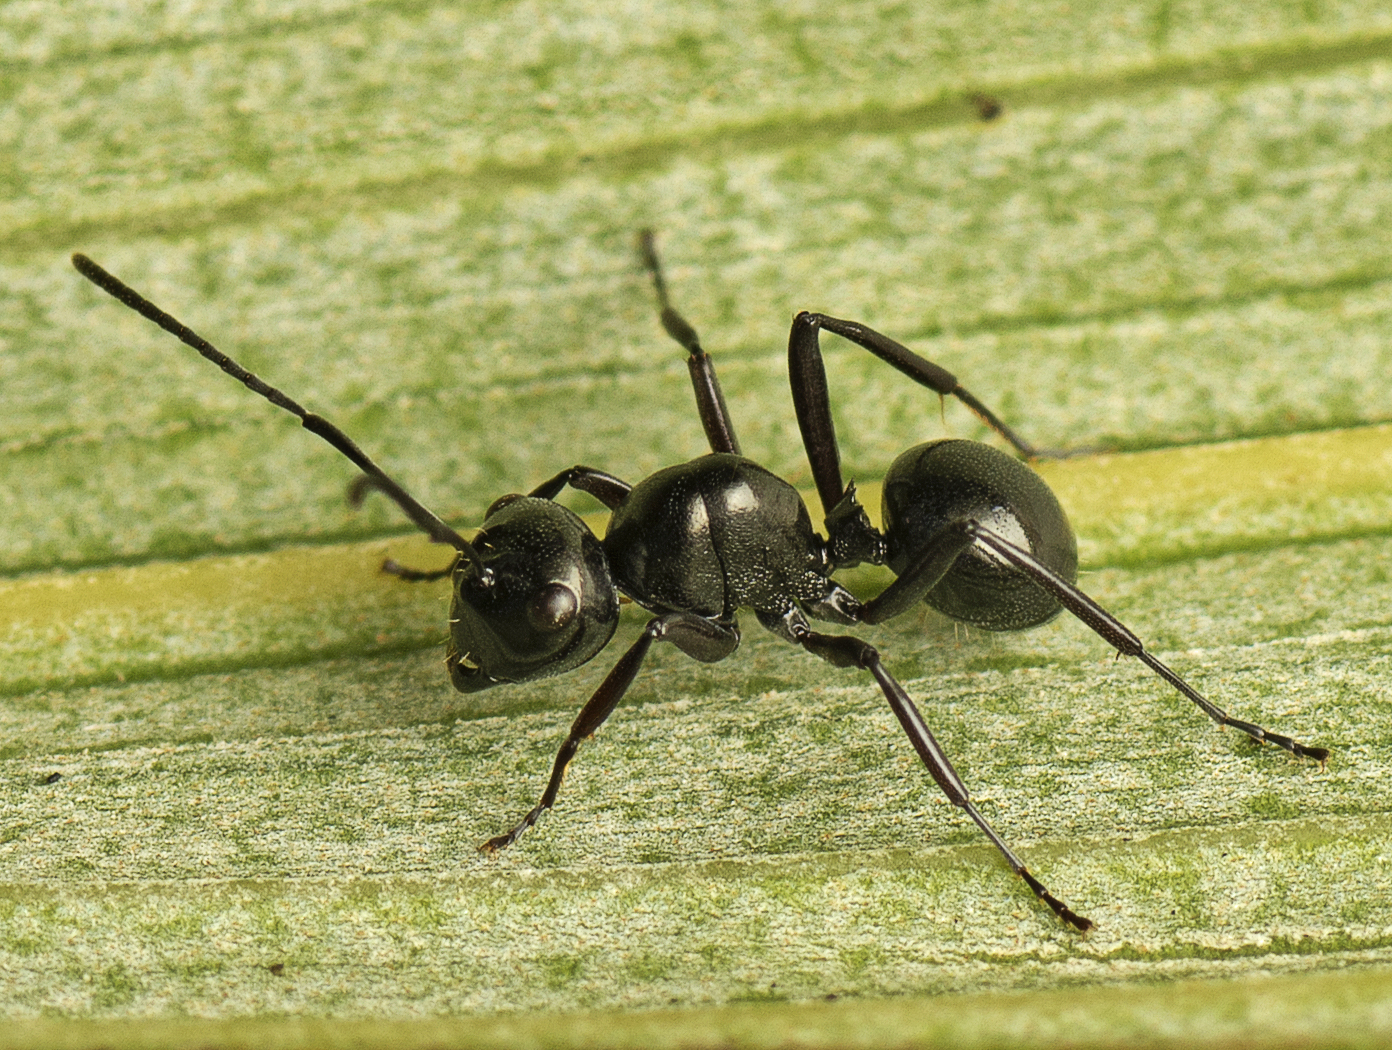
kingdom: Animalia
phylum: Arthropoda
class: Insecta
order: Hymenoptera
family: Formicidae
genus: Polyrhachis
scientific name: Polyrhachis robsoni
